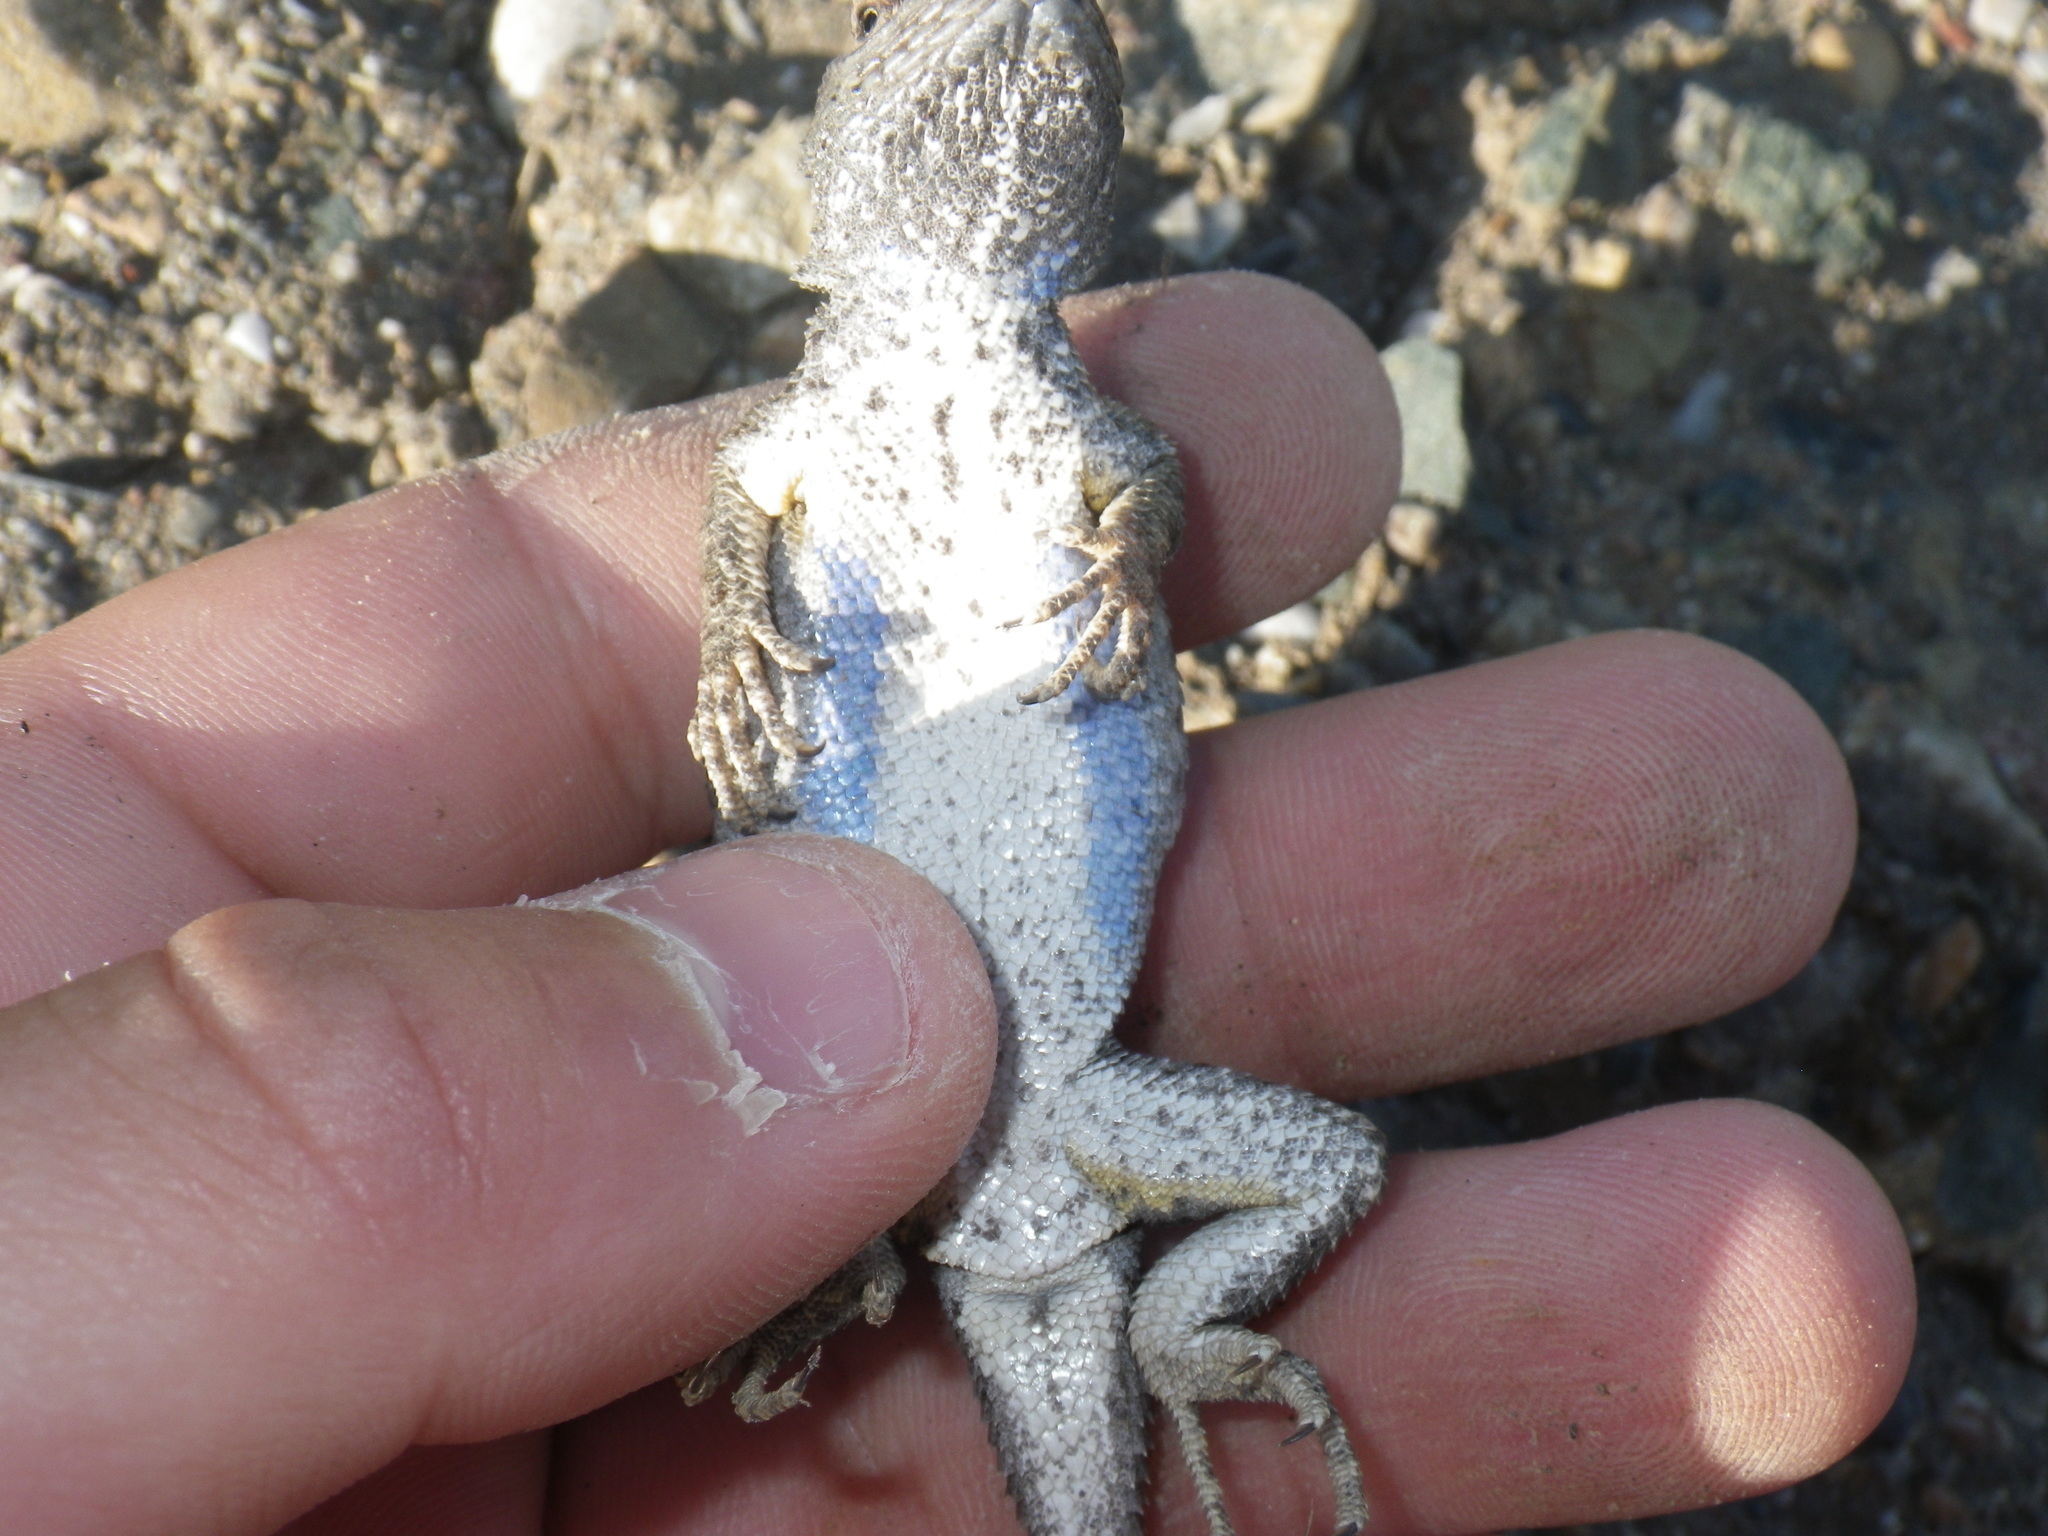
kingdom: Animalia
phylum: Chordata
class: Squamata
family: Phrynosomatidae
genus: Sceloporus
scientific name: Sceloporus occidentalis
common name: Western fence lizard
